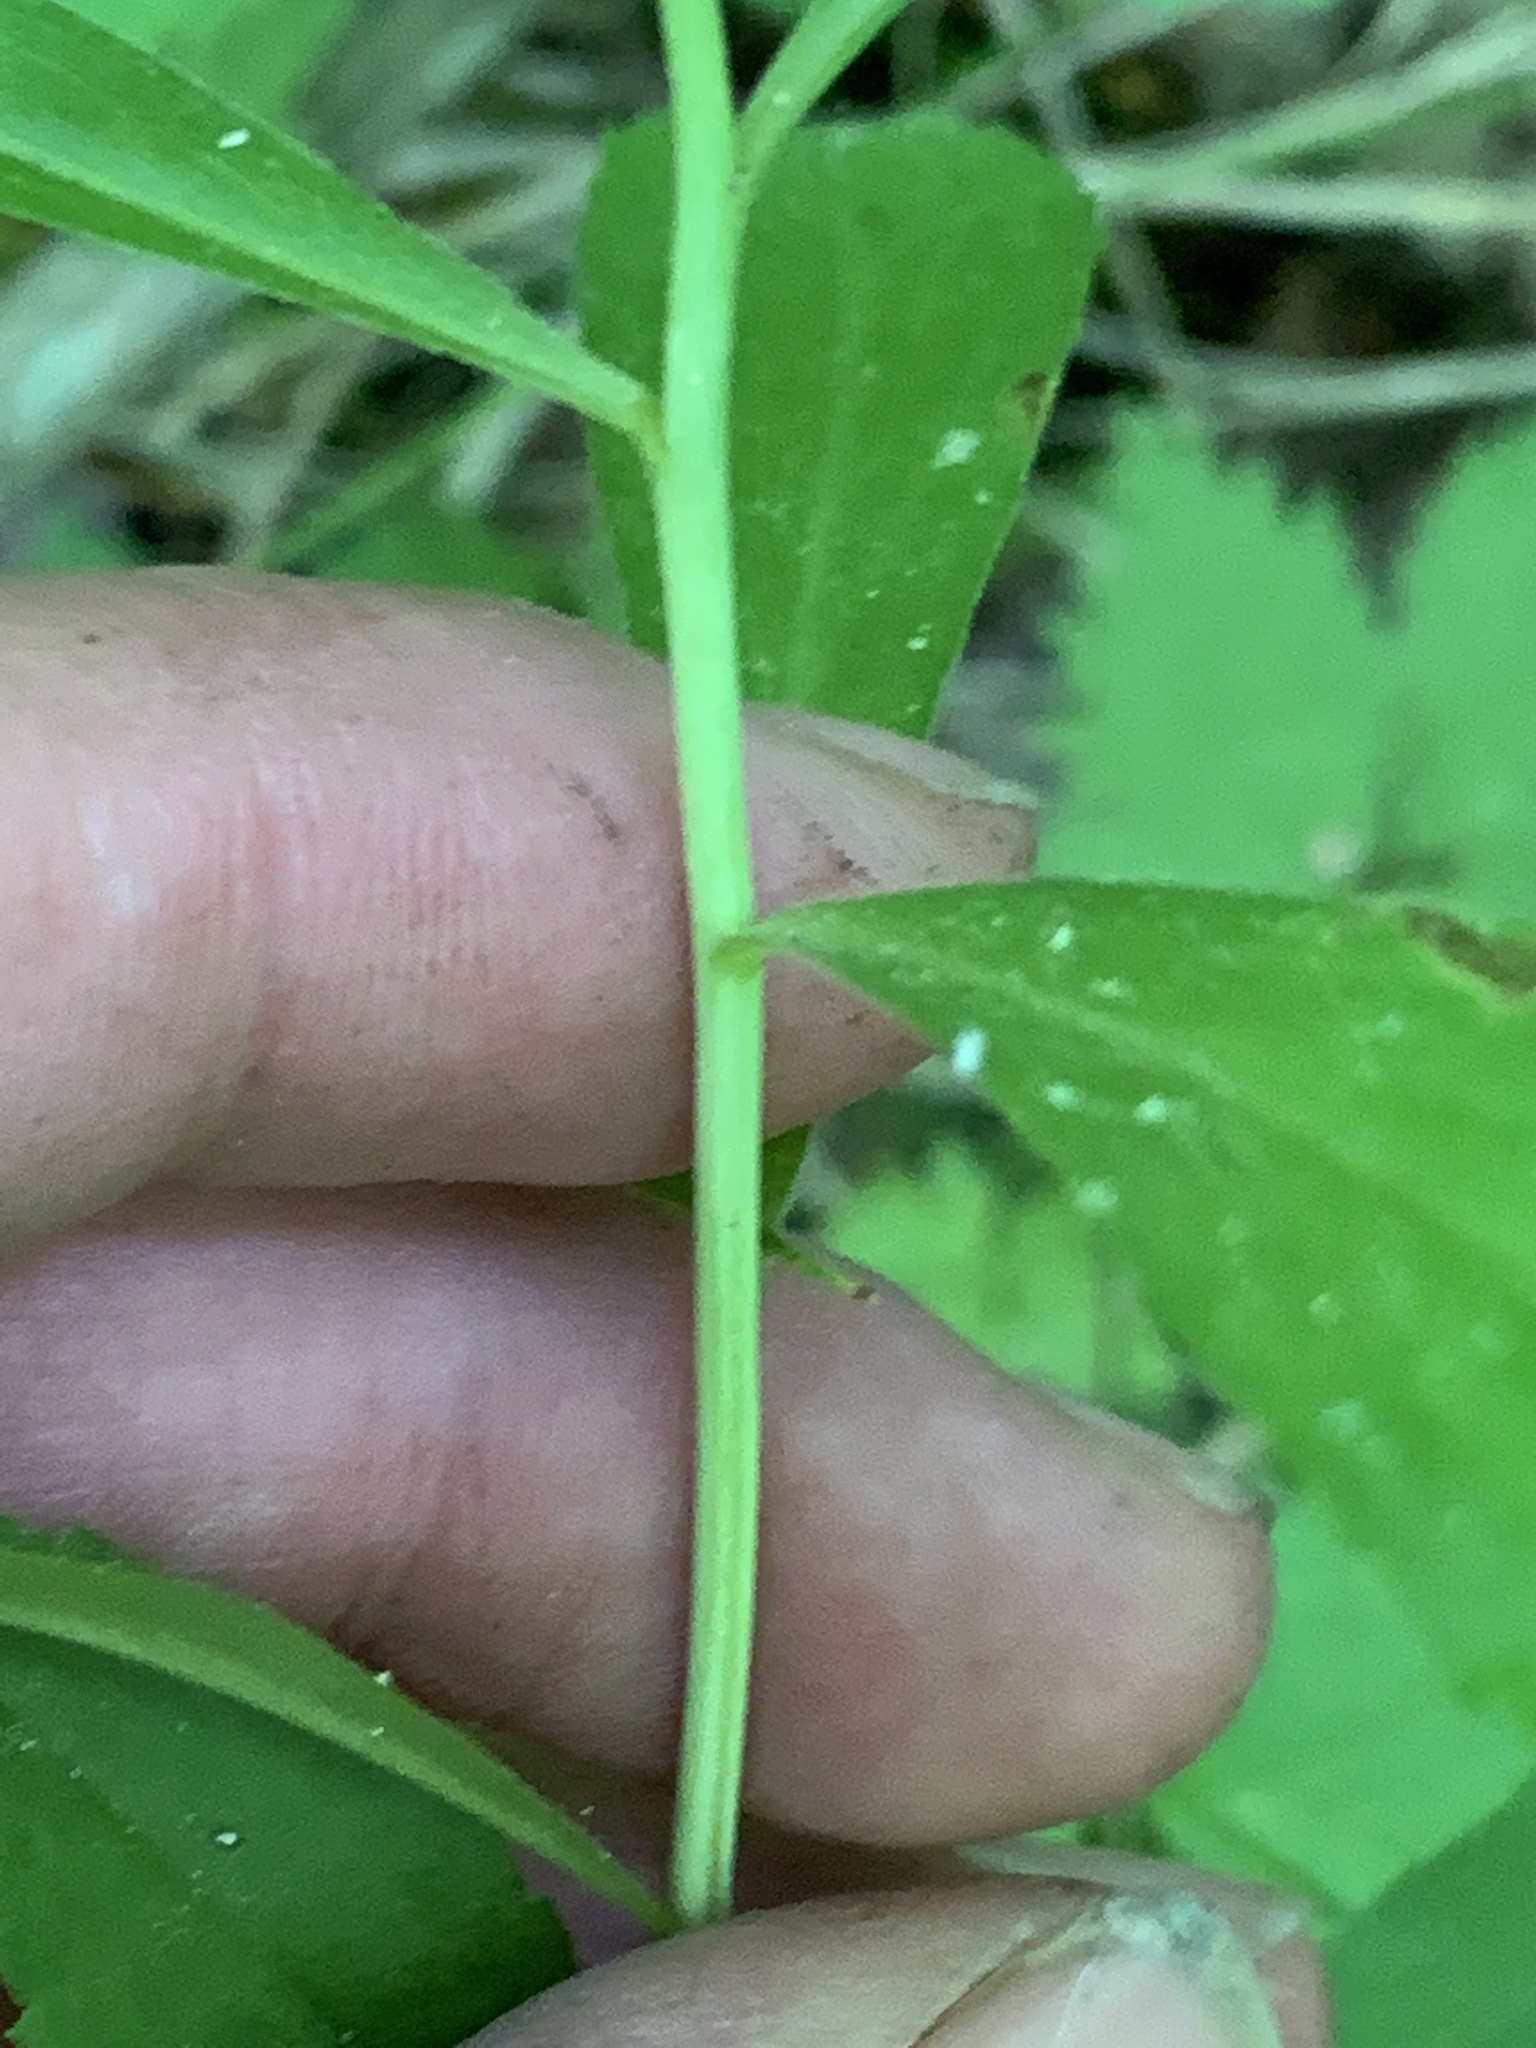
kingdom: Plantae
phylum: Tracheophyta
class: Magnoliopsida
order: Asterales
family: Asteraceae
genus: Solidago
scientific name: Solidago gigantea
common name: Giant goldenrod
